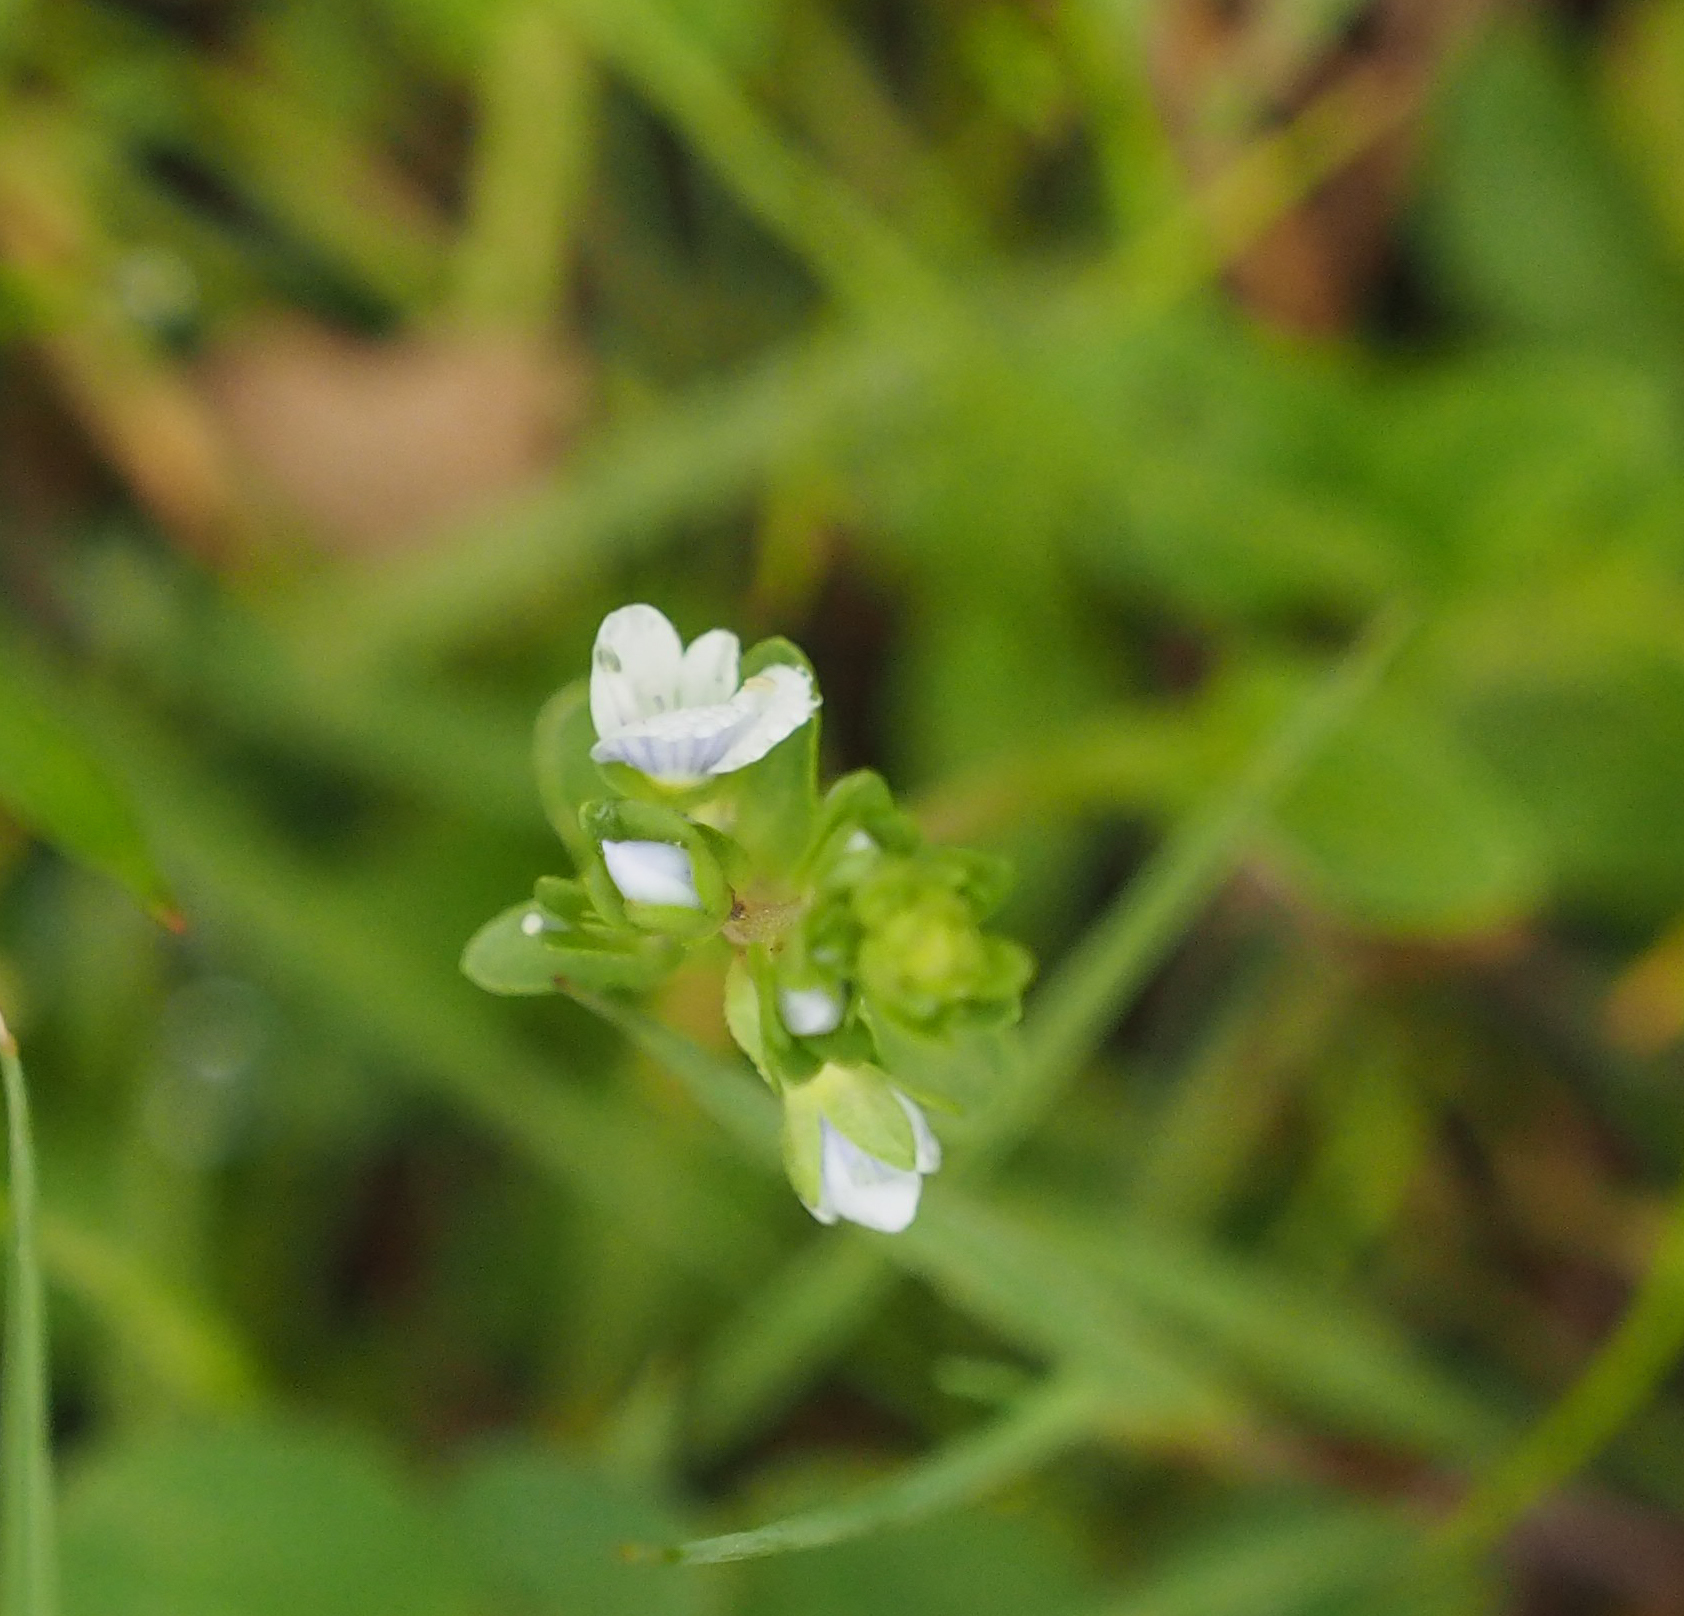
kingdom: Plantae
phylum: Tracheophyta
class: Magnoliopsida
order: Lamiales
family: Plantaginaceae
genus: Veronica
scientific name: Veronica serpyllifolia
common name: Thyme-leaved speedwell
